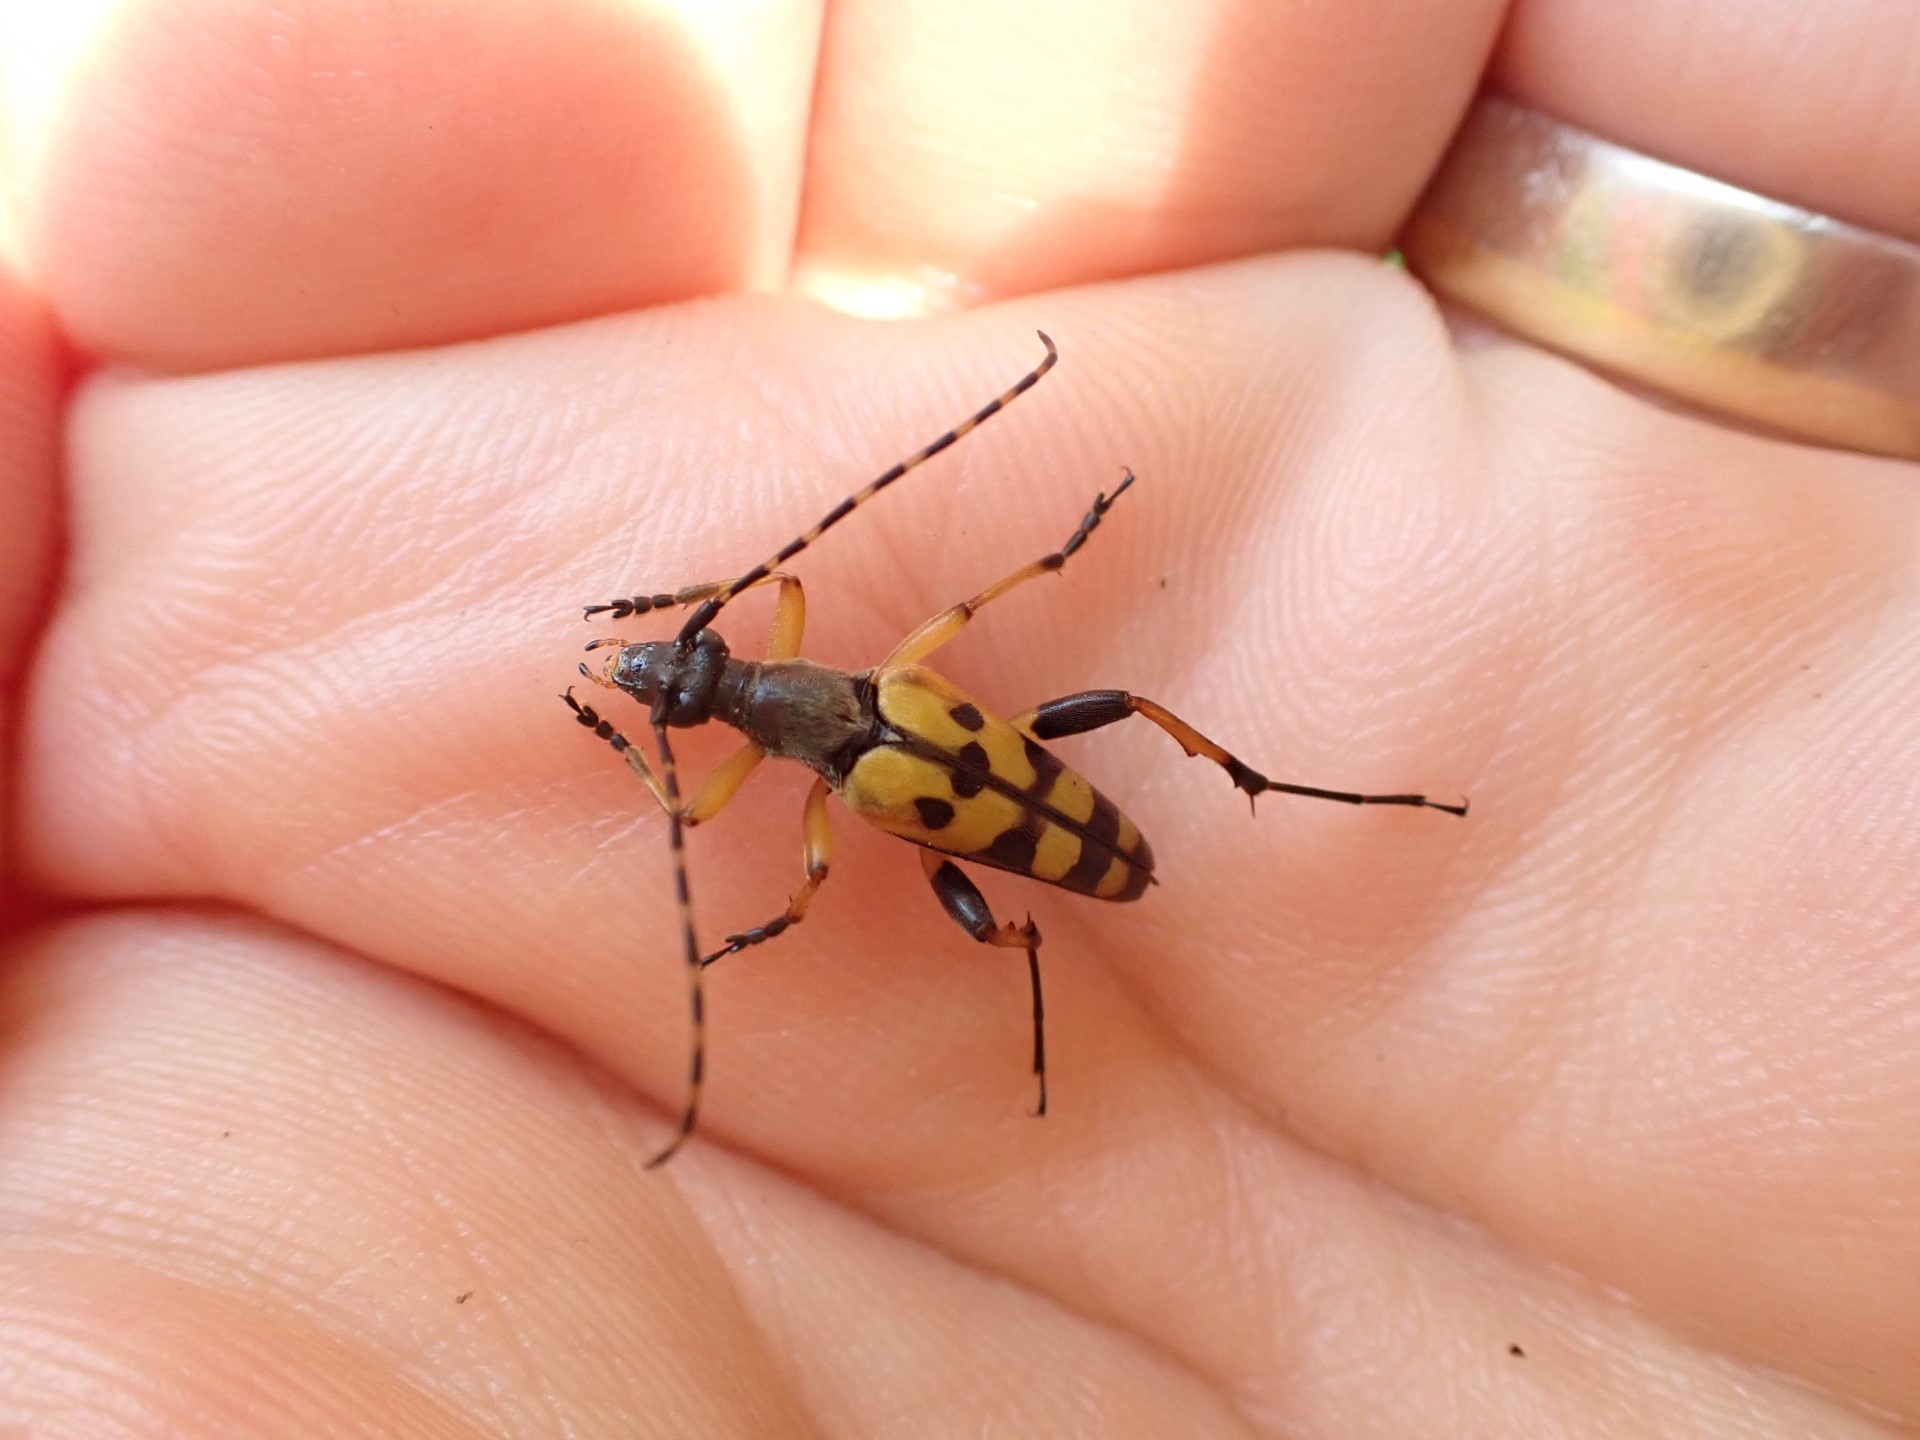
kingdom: Animalia
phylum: Arthropoda
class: Insecta
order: Coleoptera
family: Cerambycidae
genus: Rutpela
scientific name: Rutpela maculata
